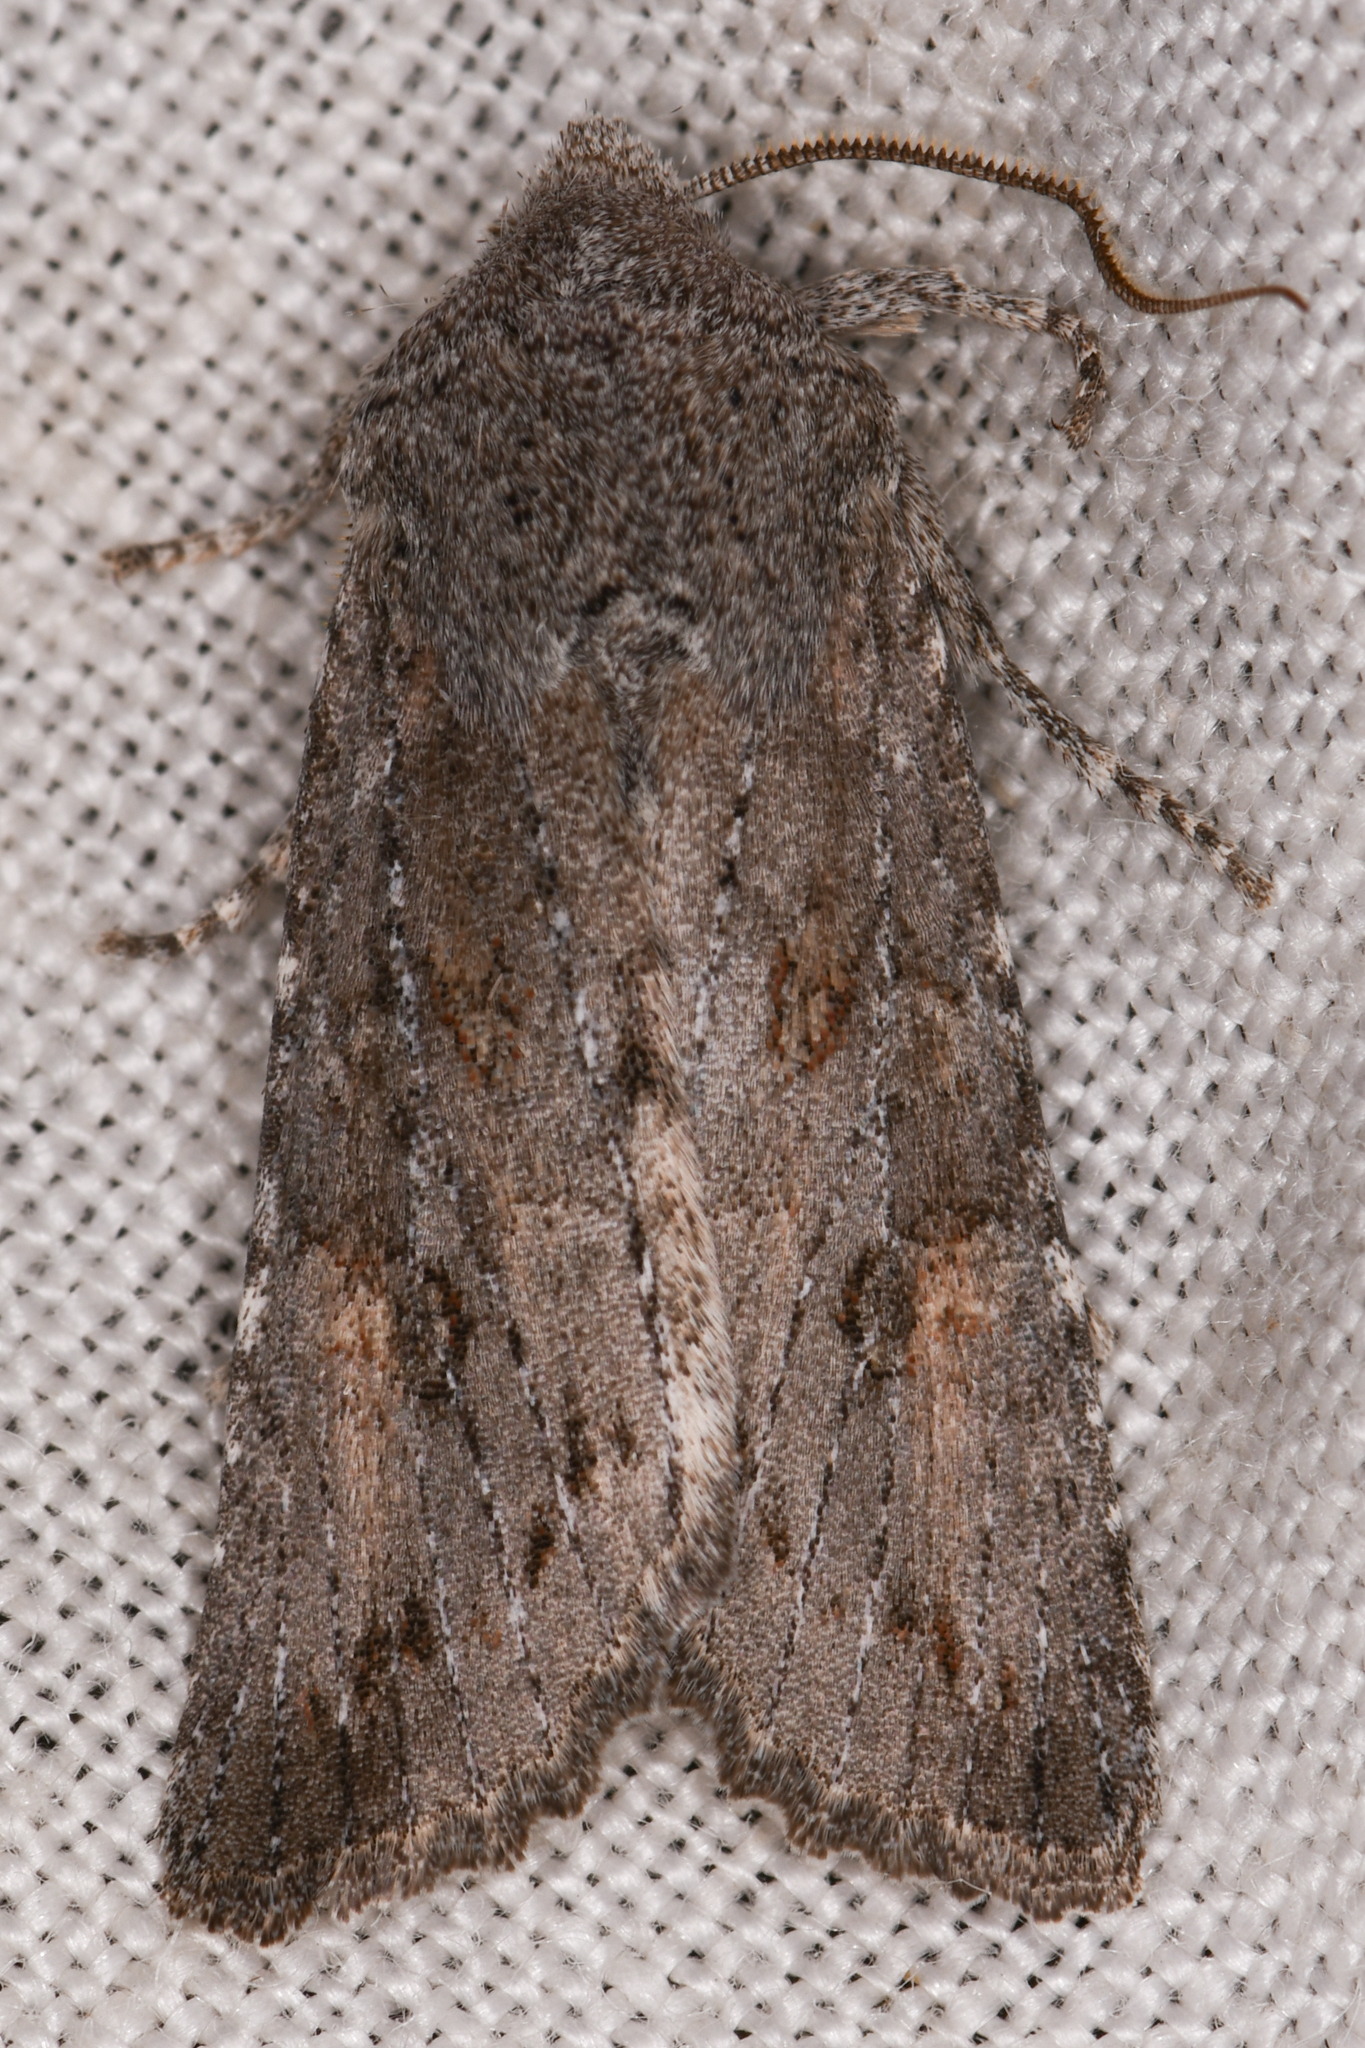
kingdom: Animalia
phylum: Arthropoda
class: Insecta
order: Lepidoptera
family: Noctuidae
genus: Egira
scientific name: Egira curialis
